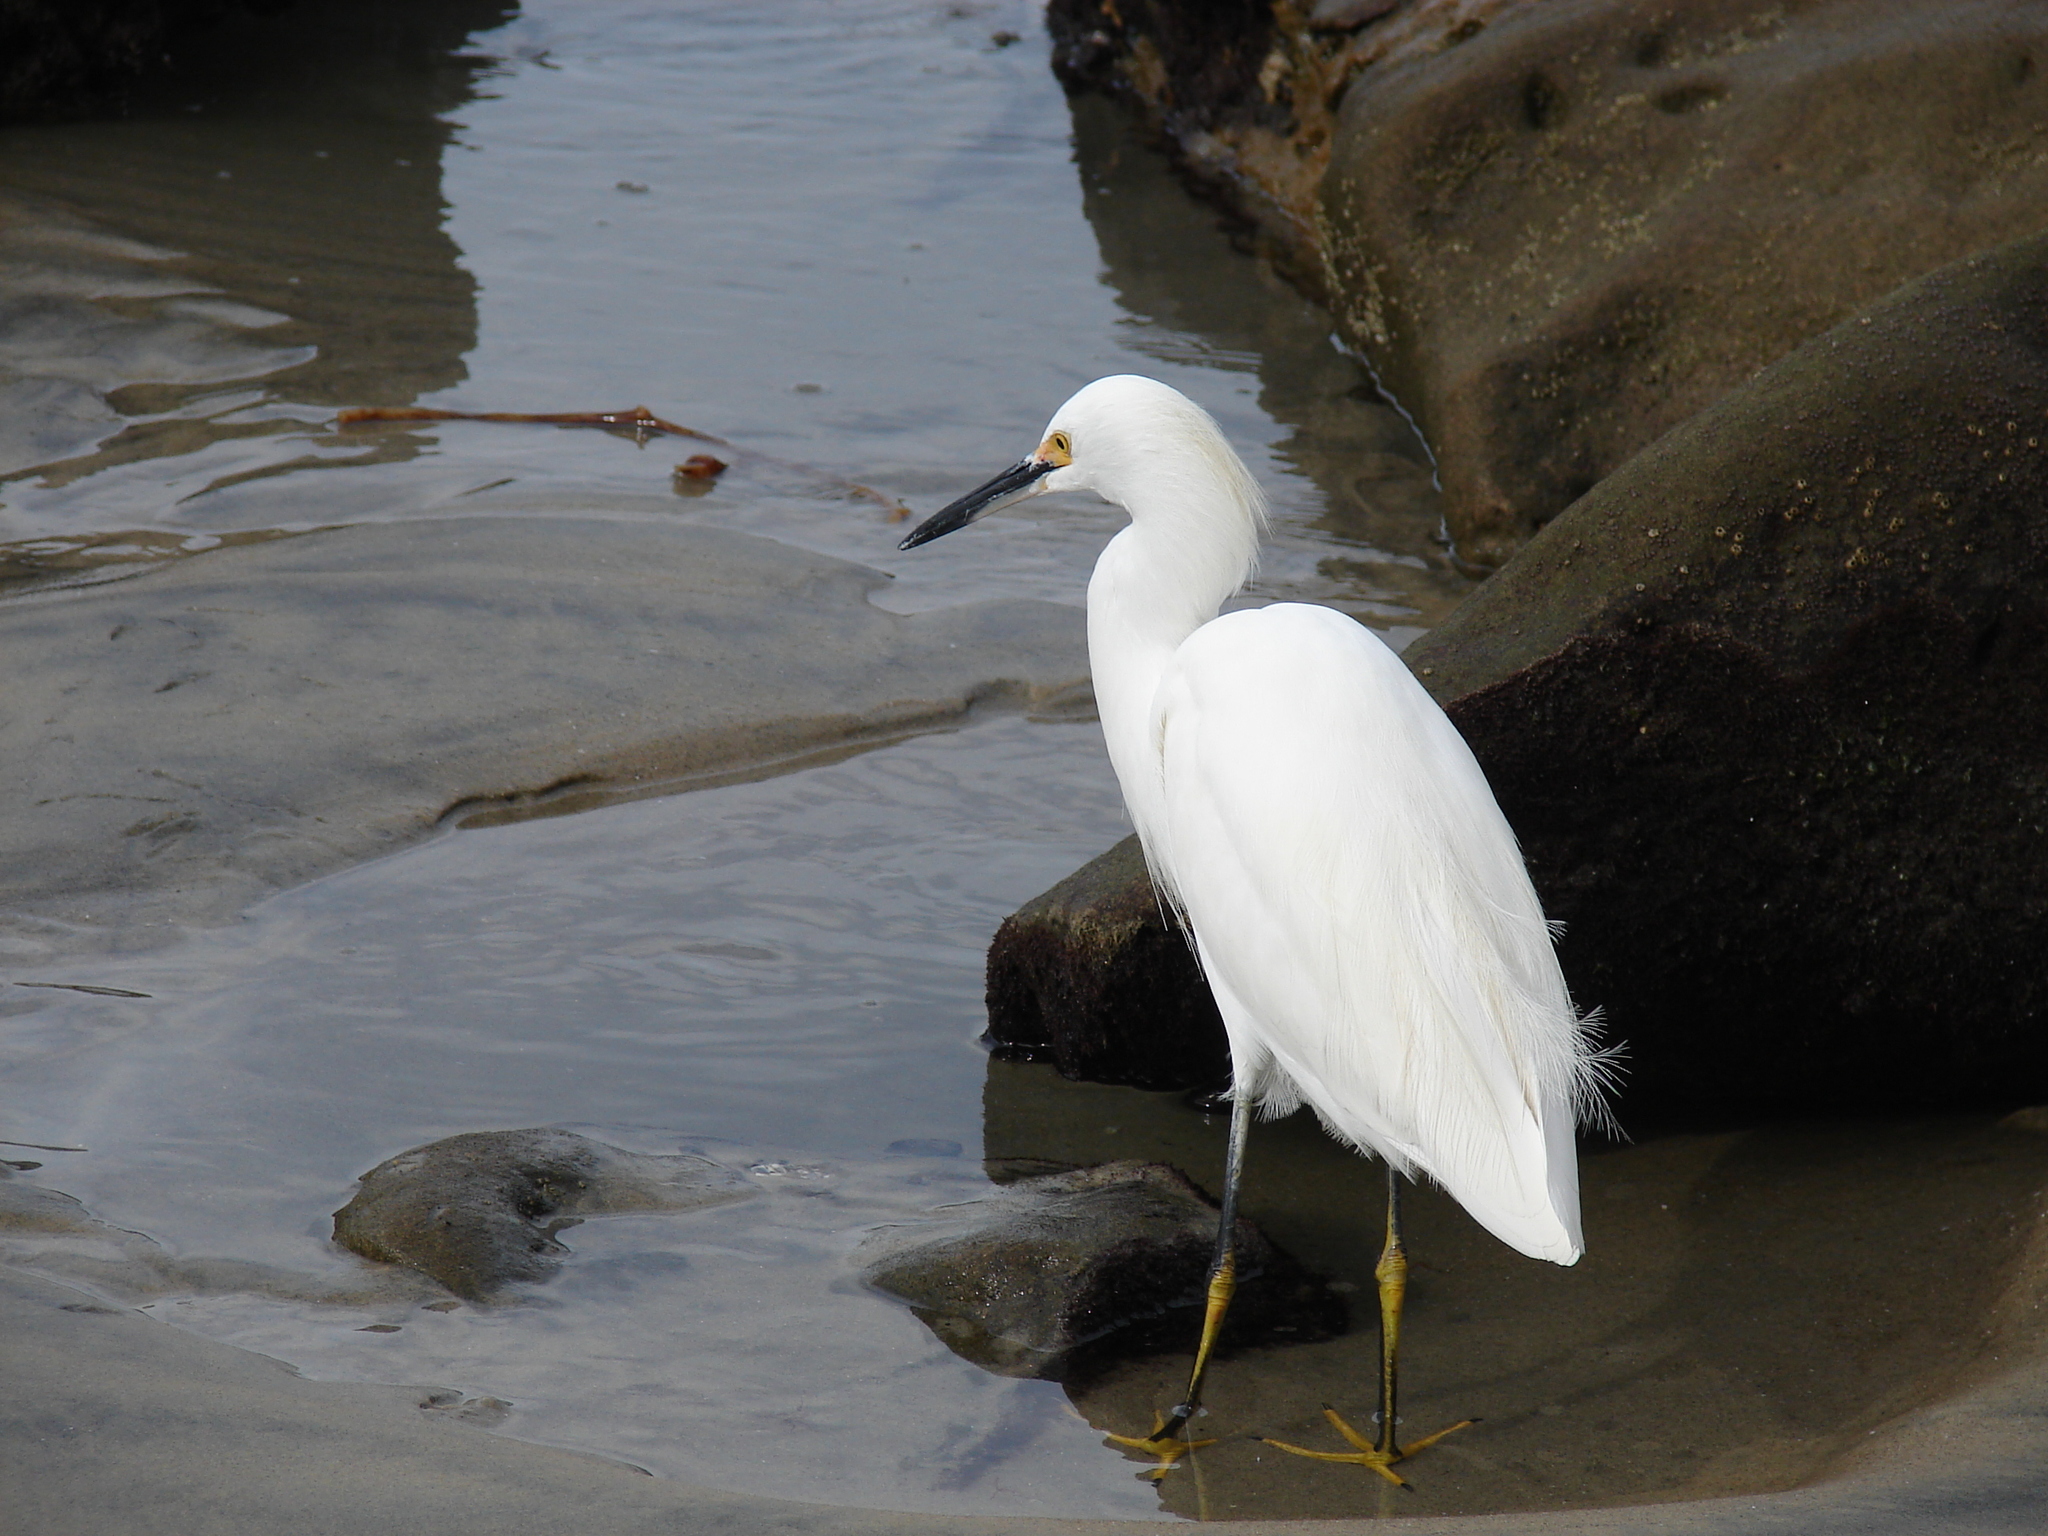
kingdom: Animalia
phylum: Chordata
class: Aves
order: Pelecaniformes
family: Ardeidae
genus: Egretta
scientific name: Egretta thula
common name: Snowy egret
